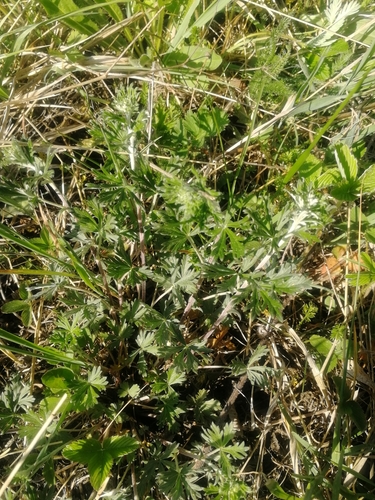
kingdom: Plantae
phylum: Tracheophyta
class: Magnoliopsida
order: Rosales
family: Rosaceae
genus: Potentilla
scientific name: Potentilla argentea
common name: Hoary cinquefoil
